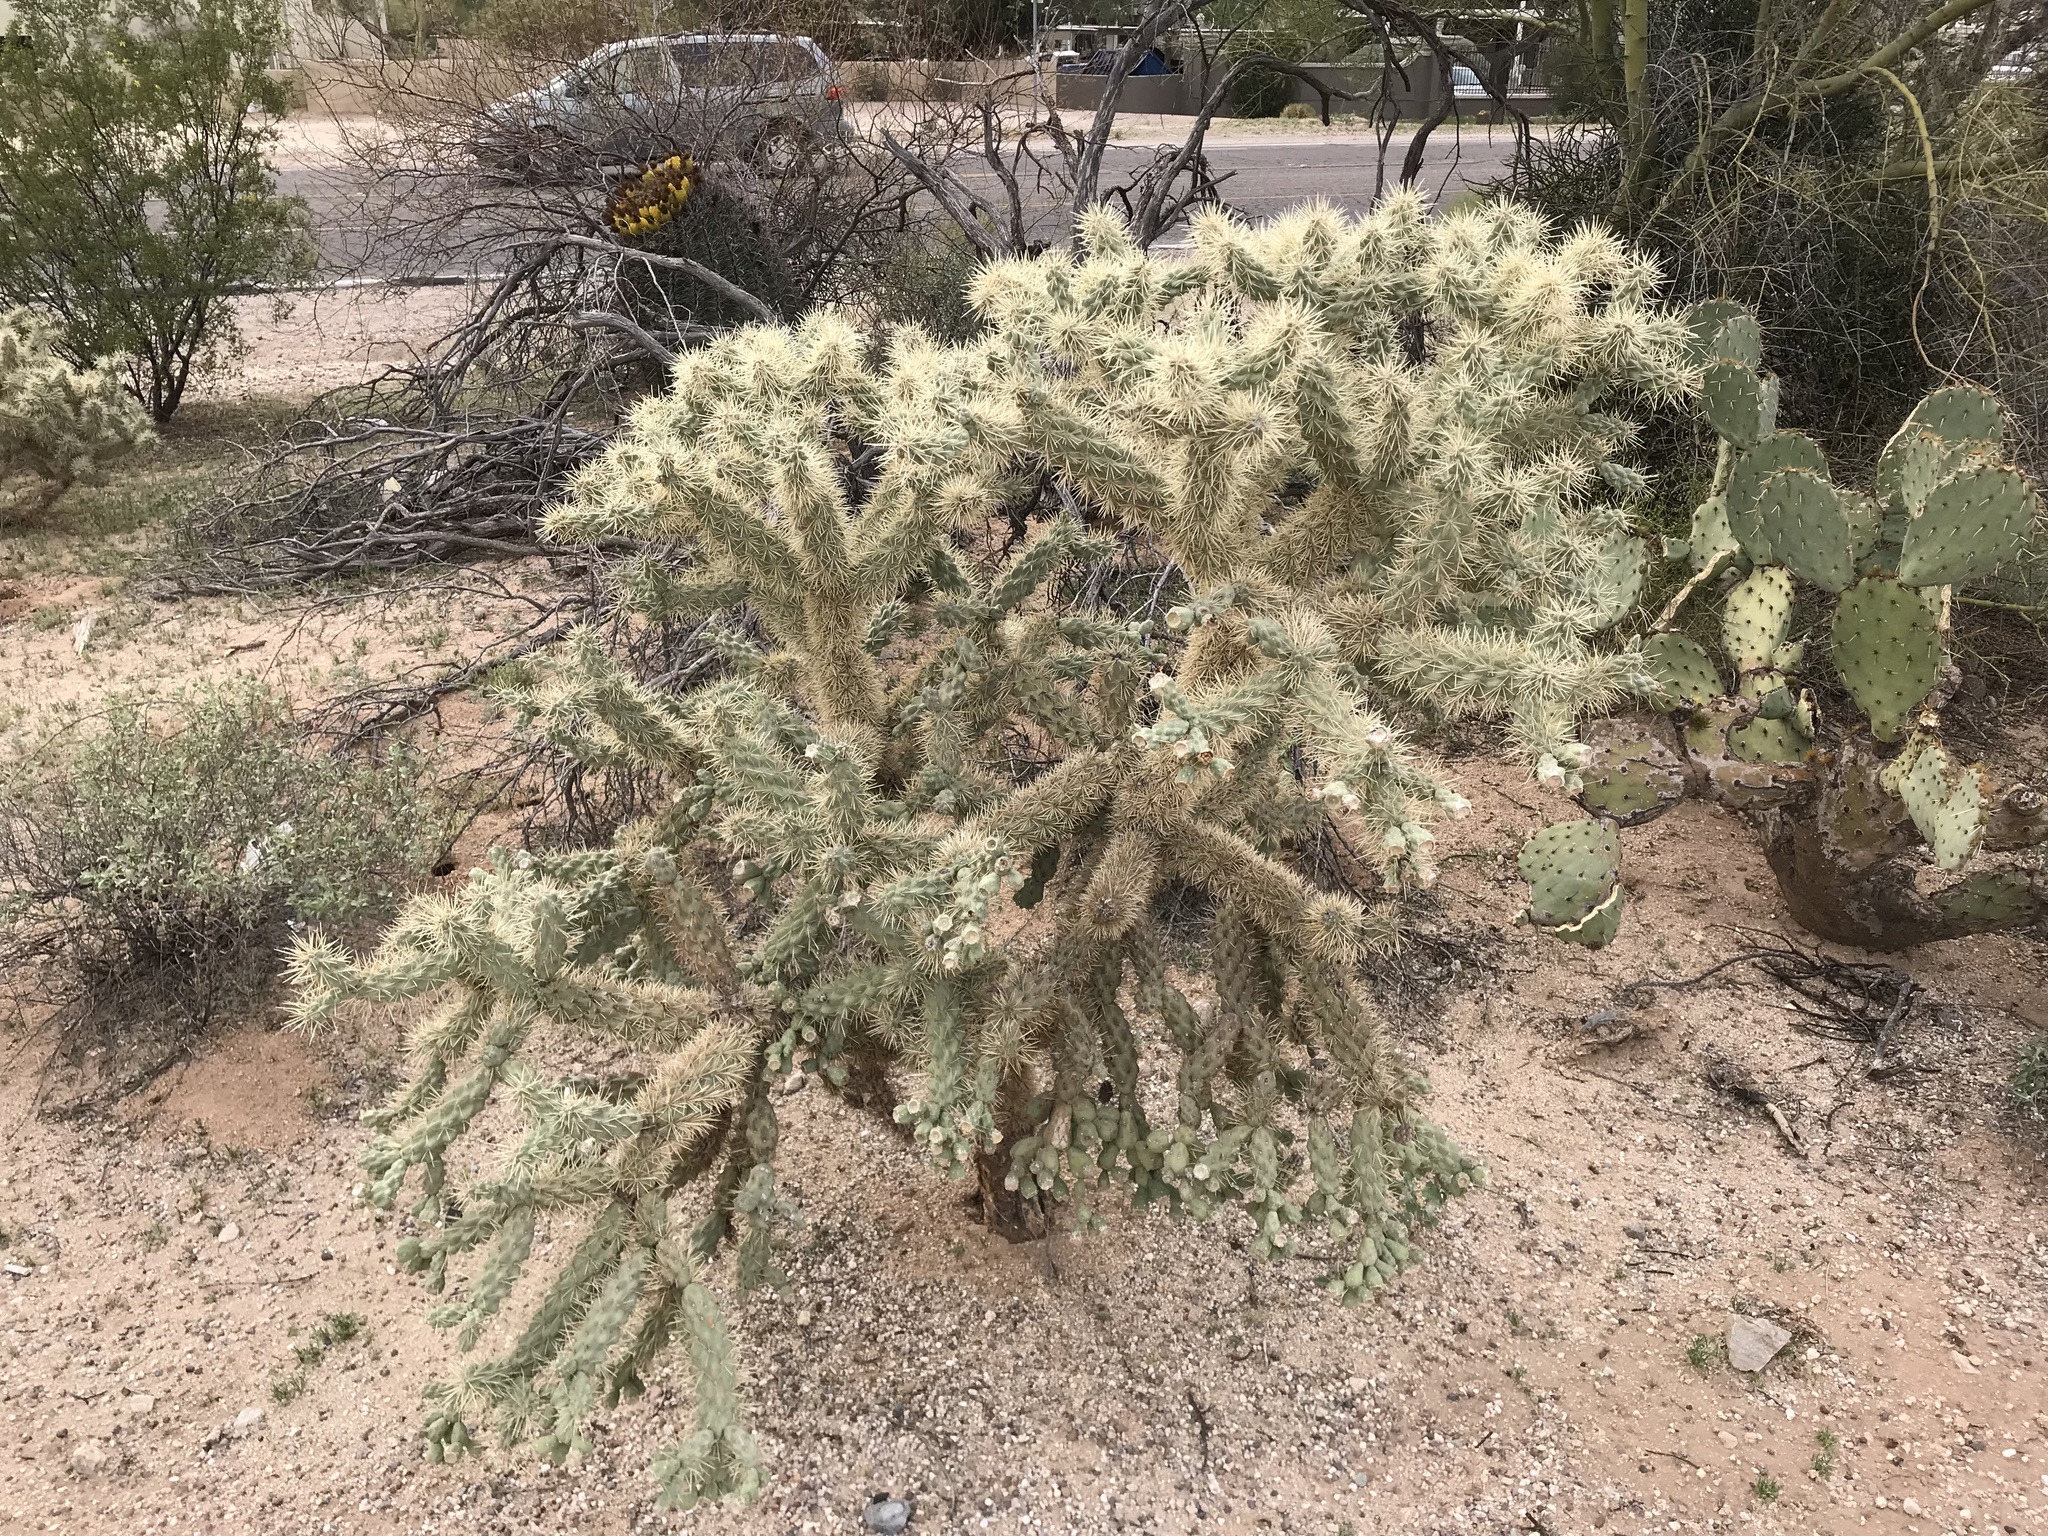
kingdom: Plantae
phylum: Tracheophyta
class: Magnoliopsida
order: Caryophyllales
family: Cactaceae
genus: Cylindropuntia
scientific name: Cylindropuntia fulgida
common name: Jumping cholla
